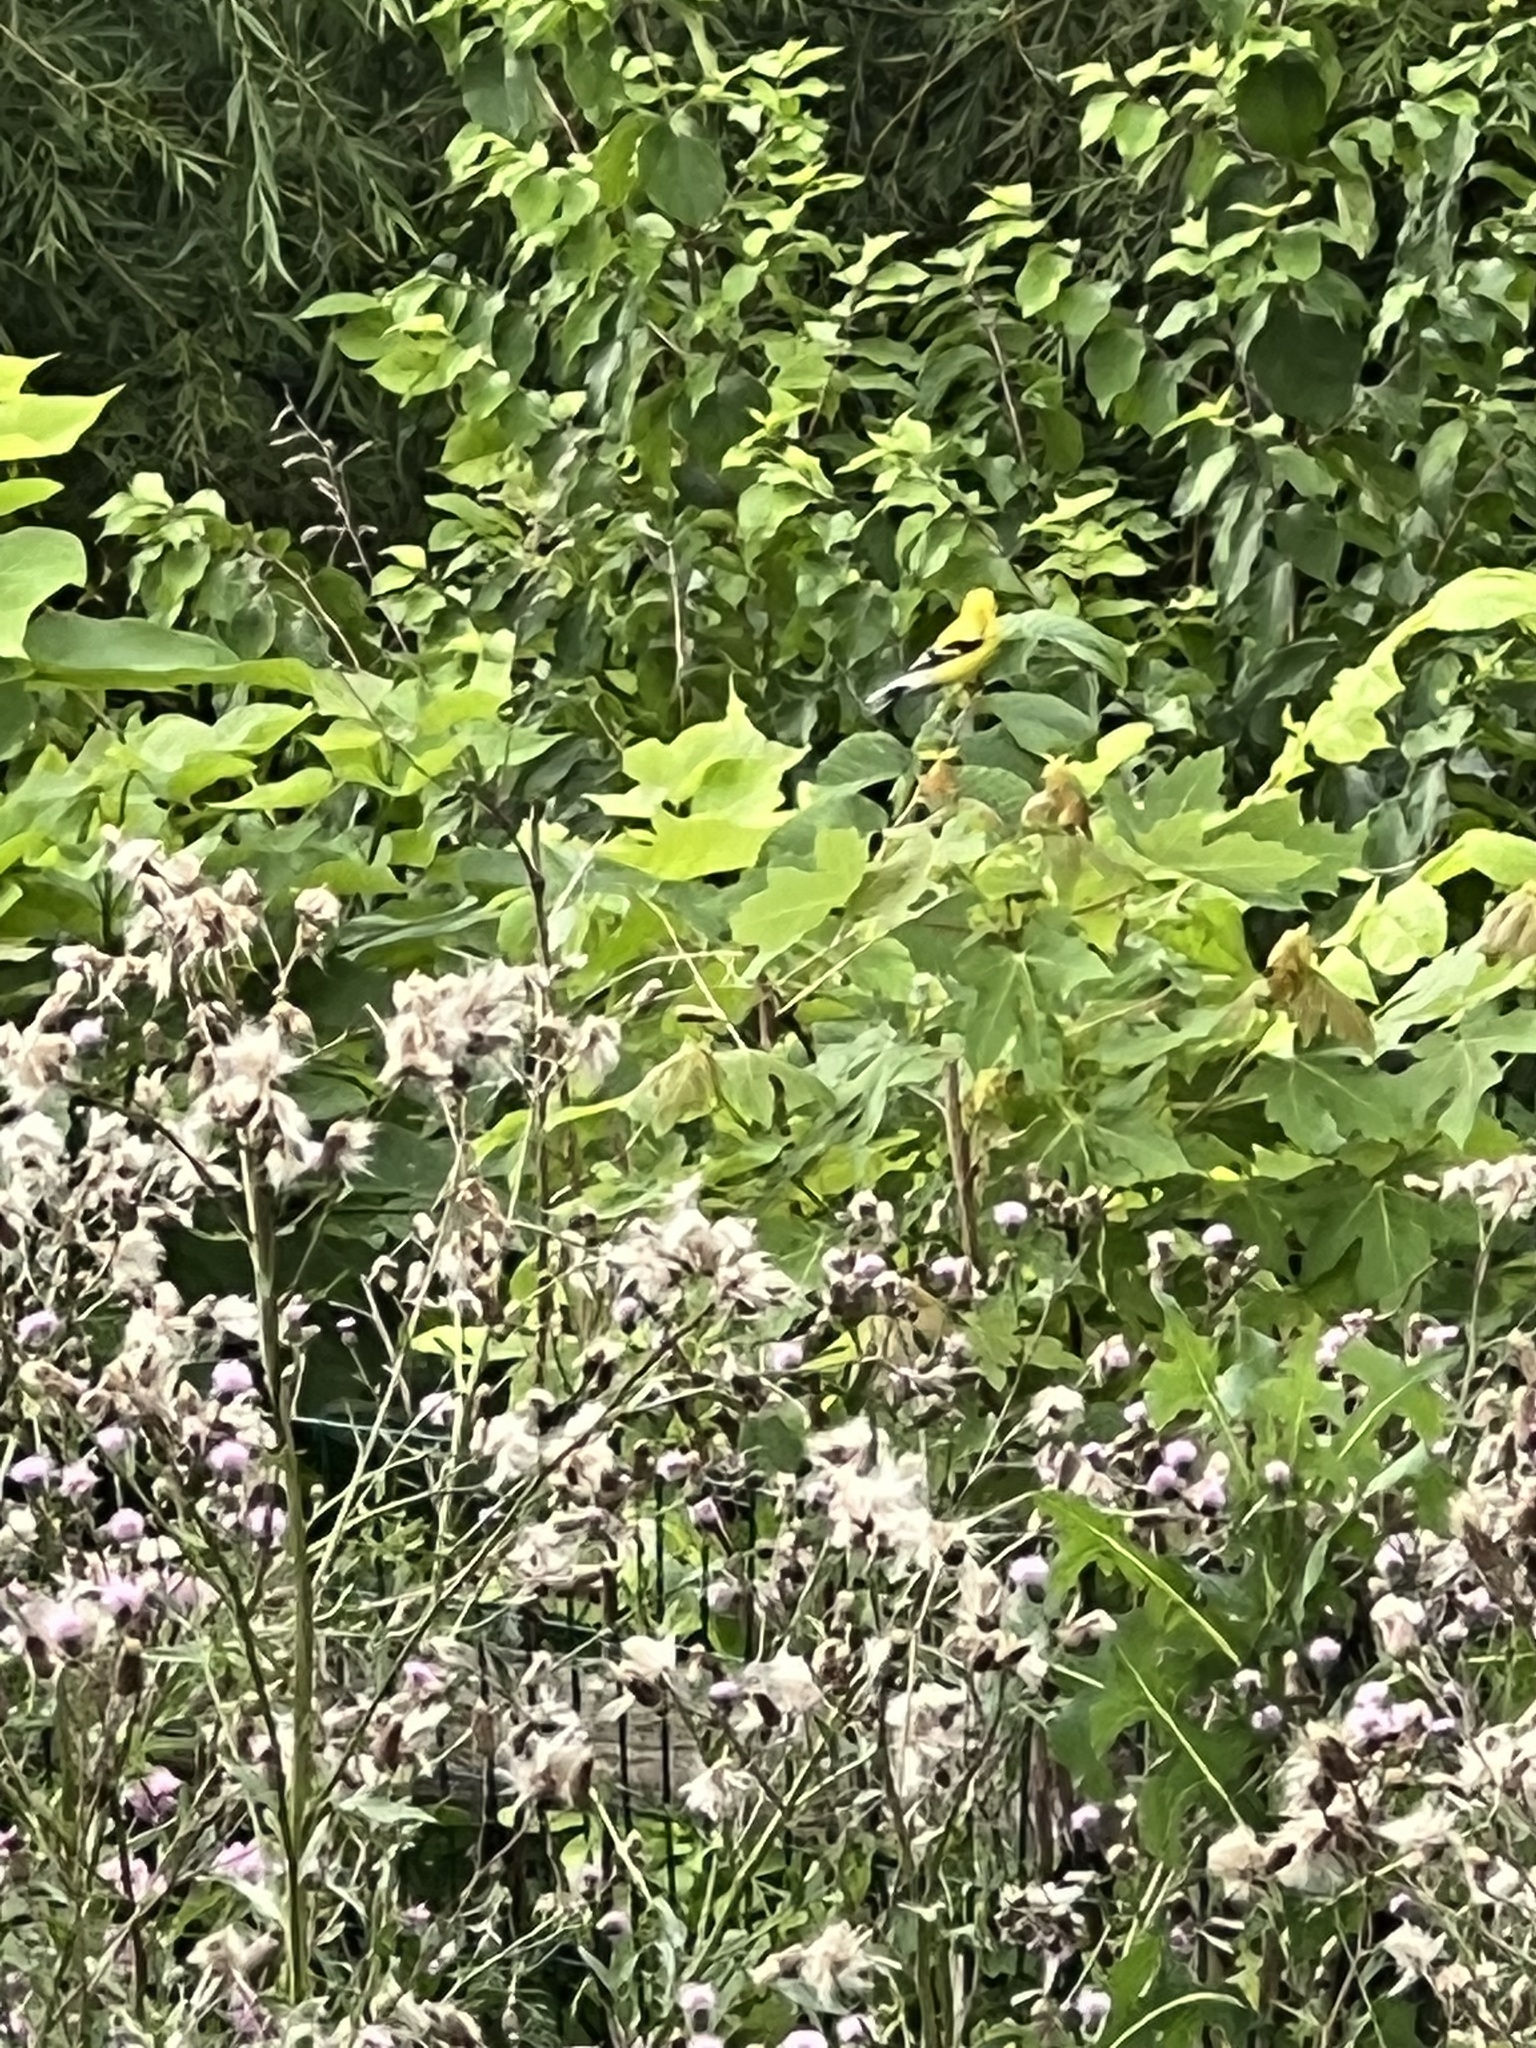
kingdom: Animalia
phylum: Chordata
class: Aves
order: Passeriformes
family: Fringillidae
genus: Spinus
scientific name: Spinus tristis
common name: American goldfinch
